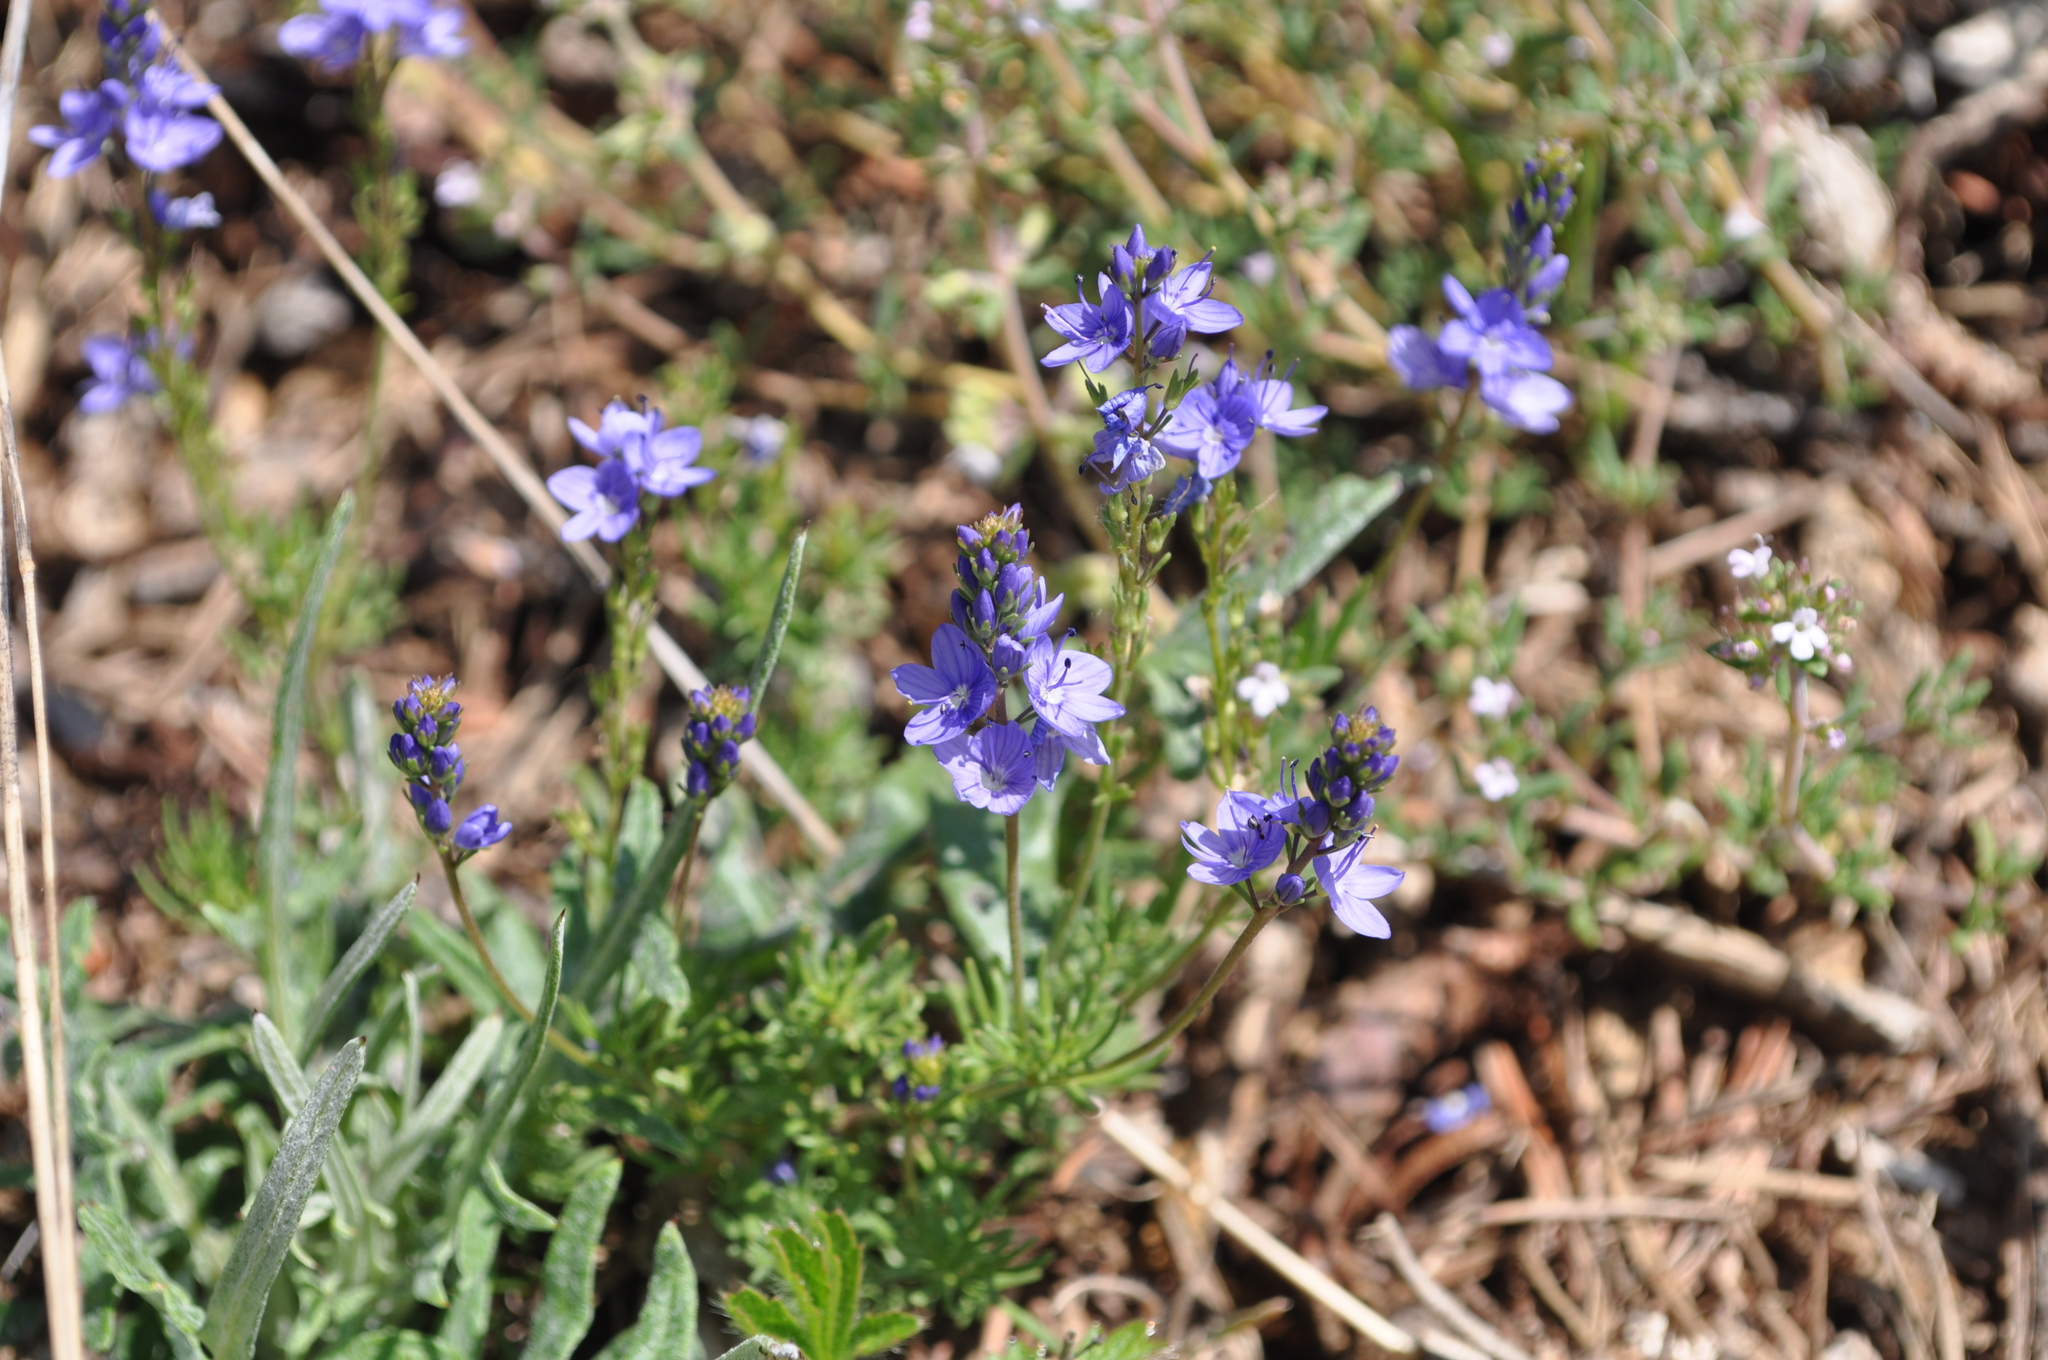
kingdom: Plantae
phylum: Tracheophyta
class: Magnoliopsida
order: Lamiales
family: Plantaginaceae
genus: Veronica
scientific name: Veronica tenuifolia
